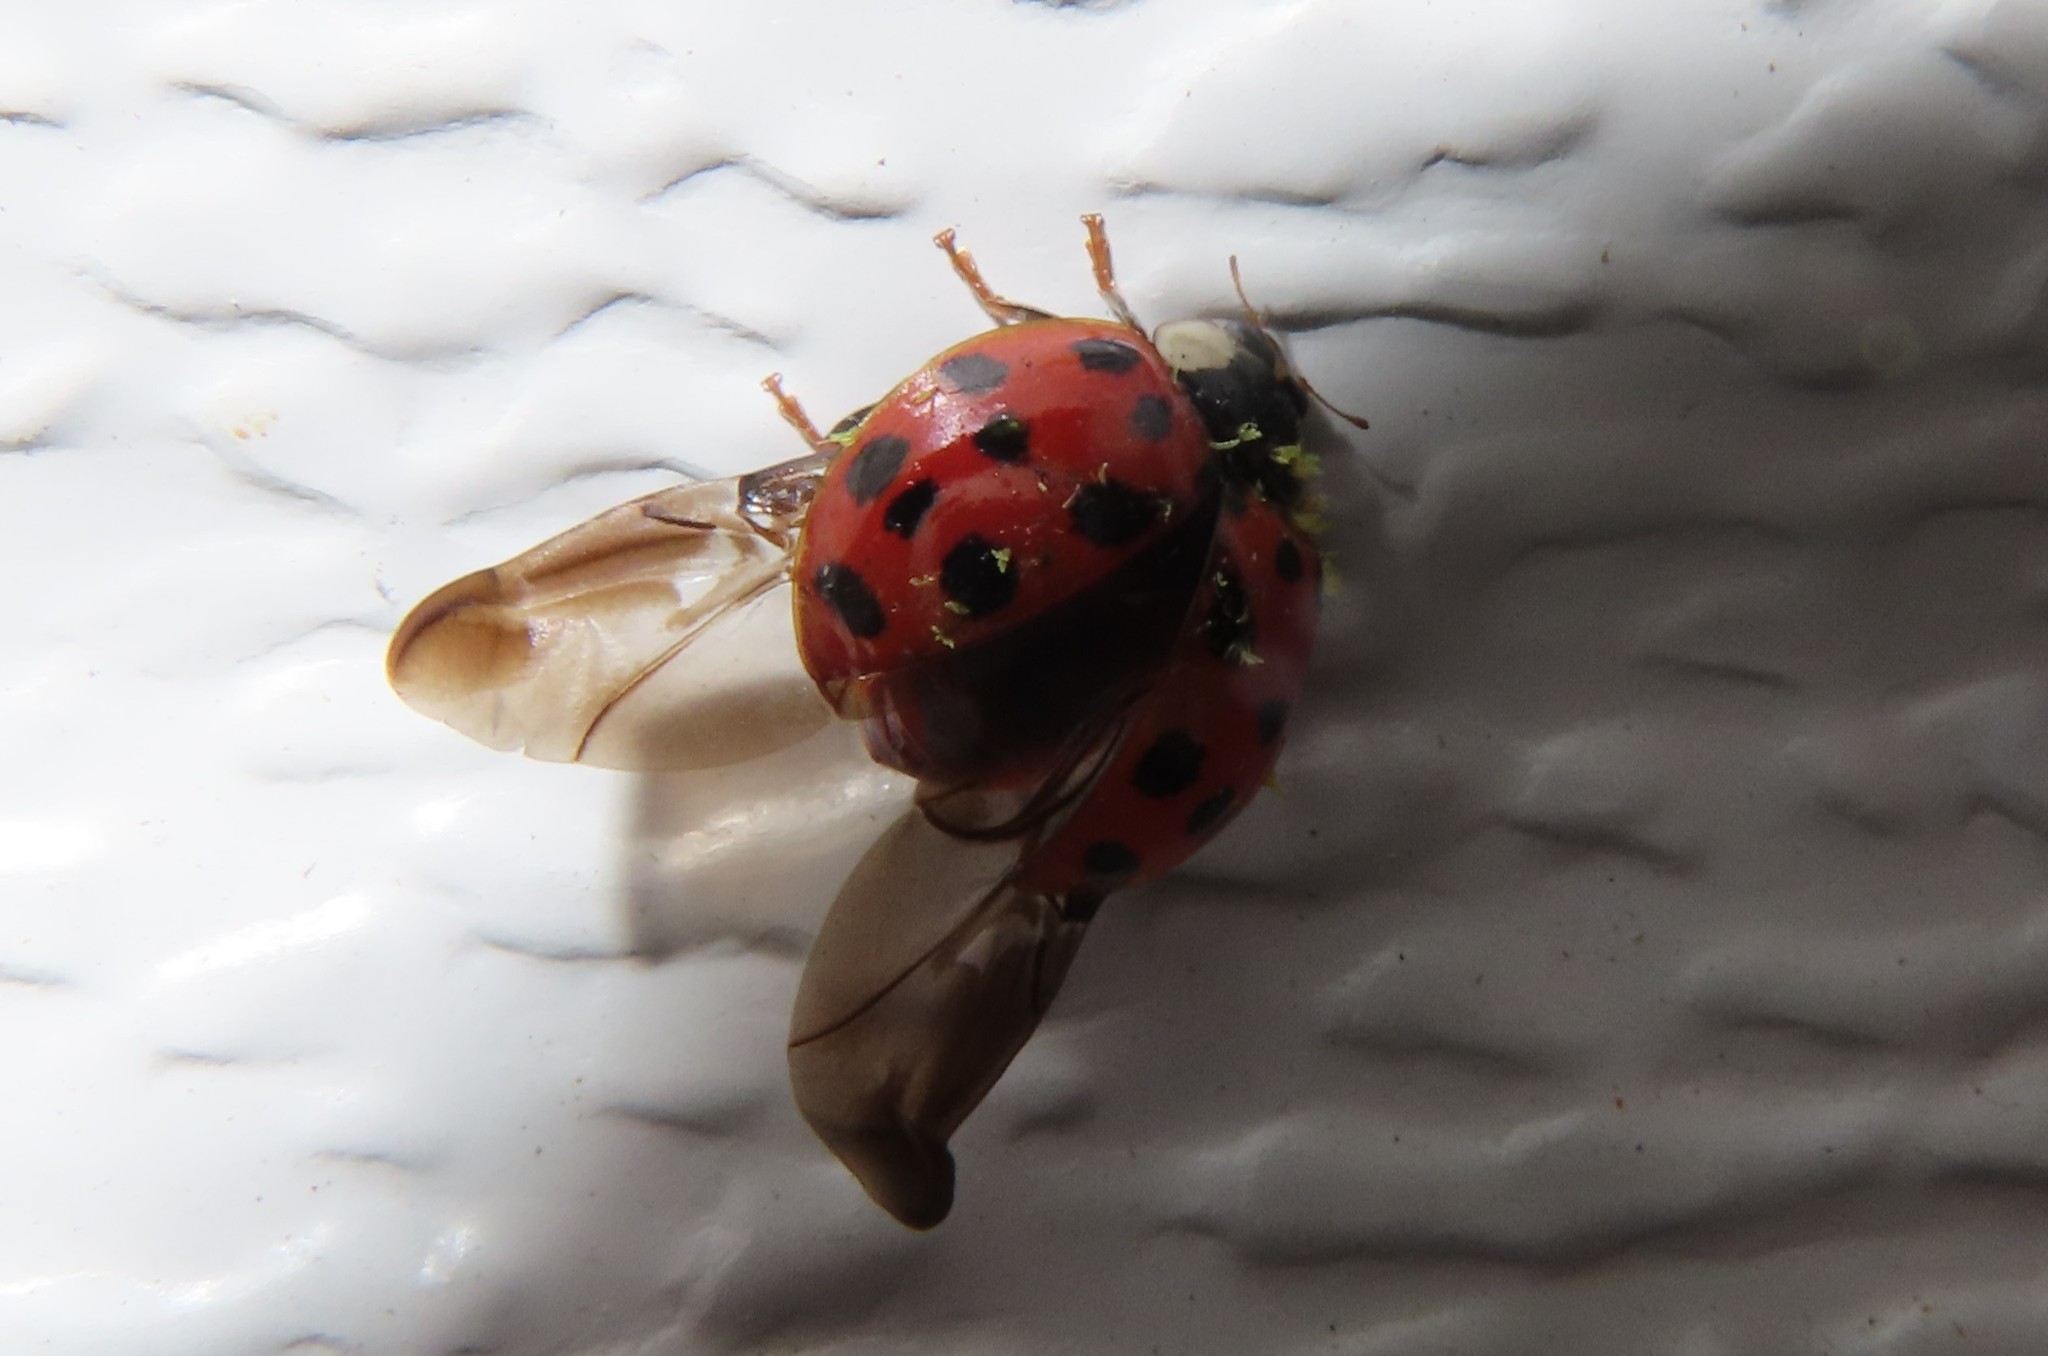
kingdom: Fungi
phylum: Ascomycota
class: Laboulbeniomycetes
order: Laboulbeniales
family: Laboulbeniaceae
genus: Hesperomyces
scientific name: Hesperomyces harmoniae
